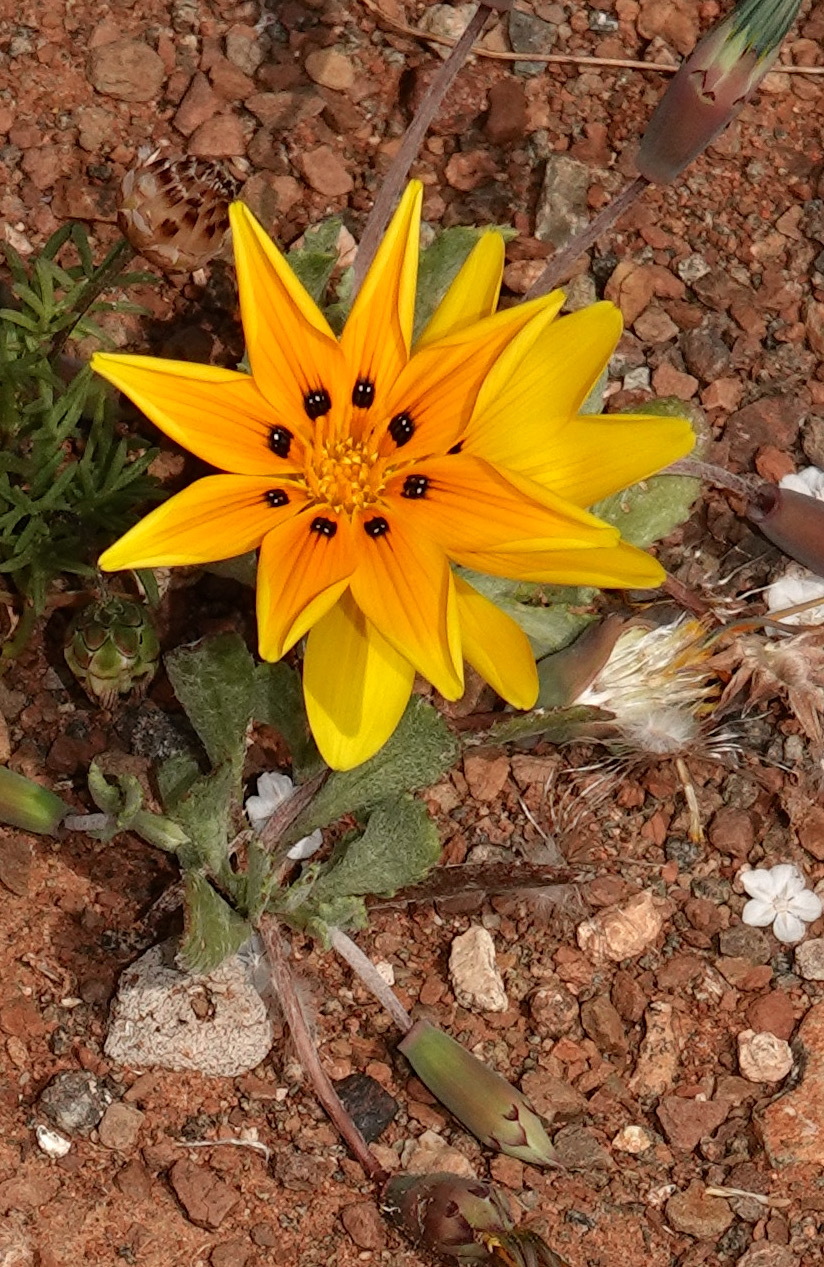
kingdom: Plantae
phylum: Tracheophyta
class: Magnoliopsida
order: Asterales
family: Asteraceae
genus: Gazania
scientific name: Gazania lichtensteinii
